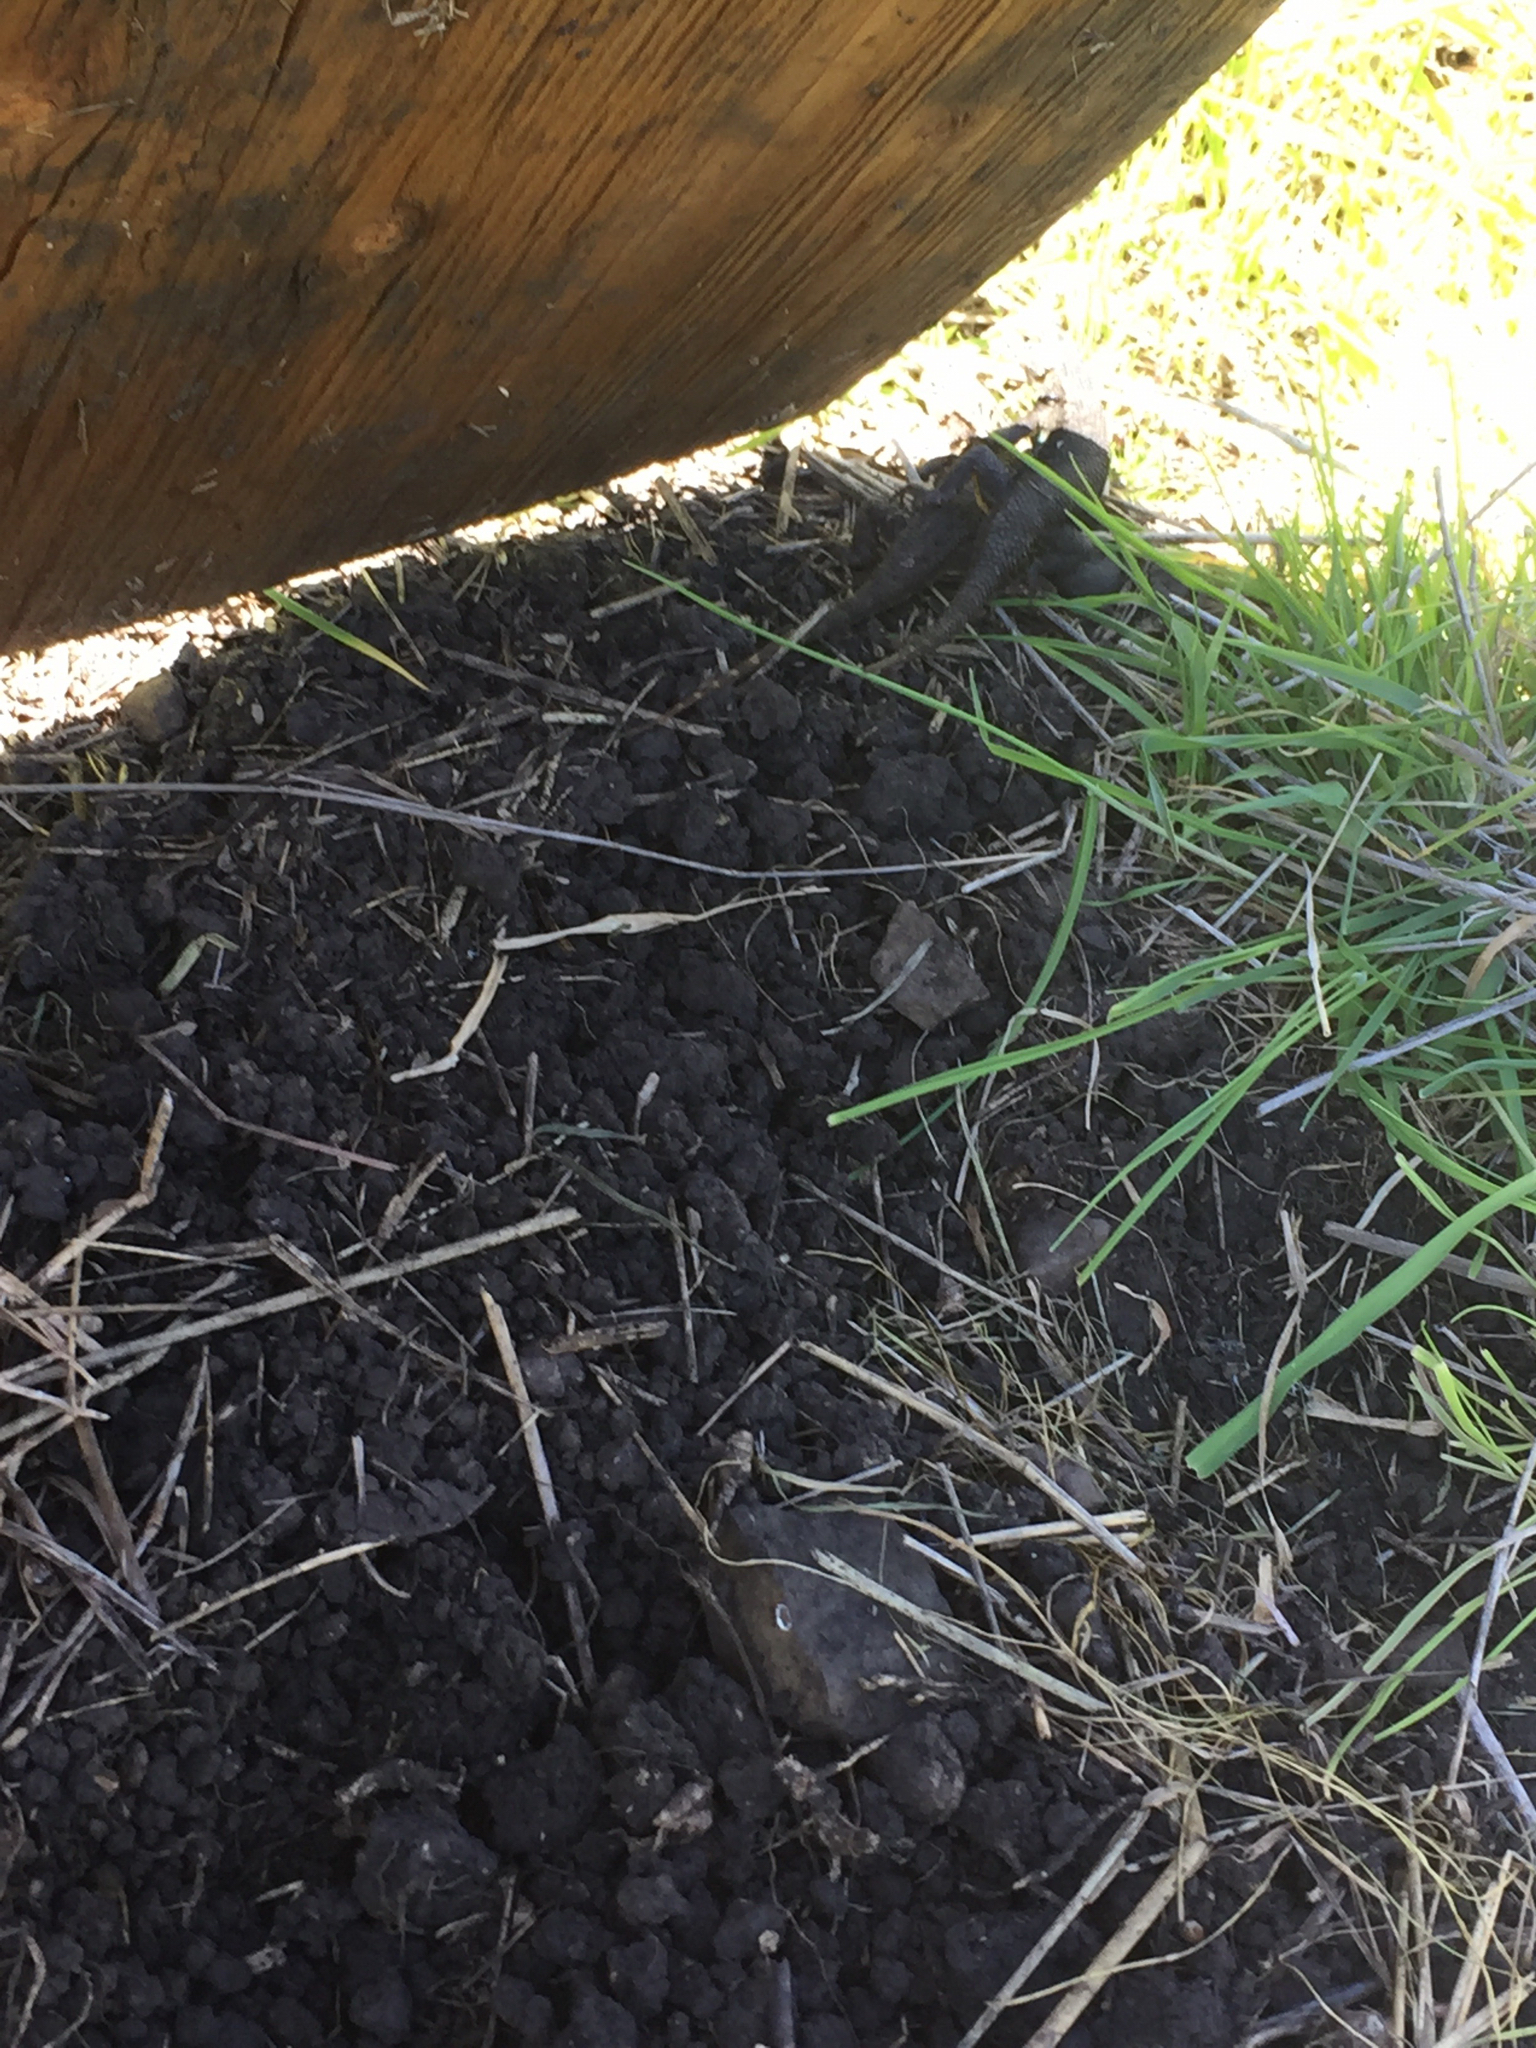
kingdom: Animalia
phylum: Chordata
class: Squamata
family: Phrynosomatidae
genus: Sceloporus
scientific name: Sceloporus occidentalis
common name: Western fence lizard
